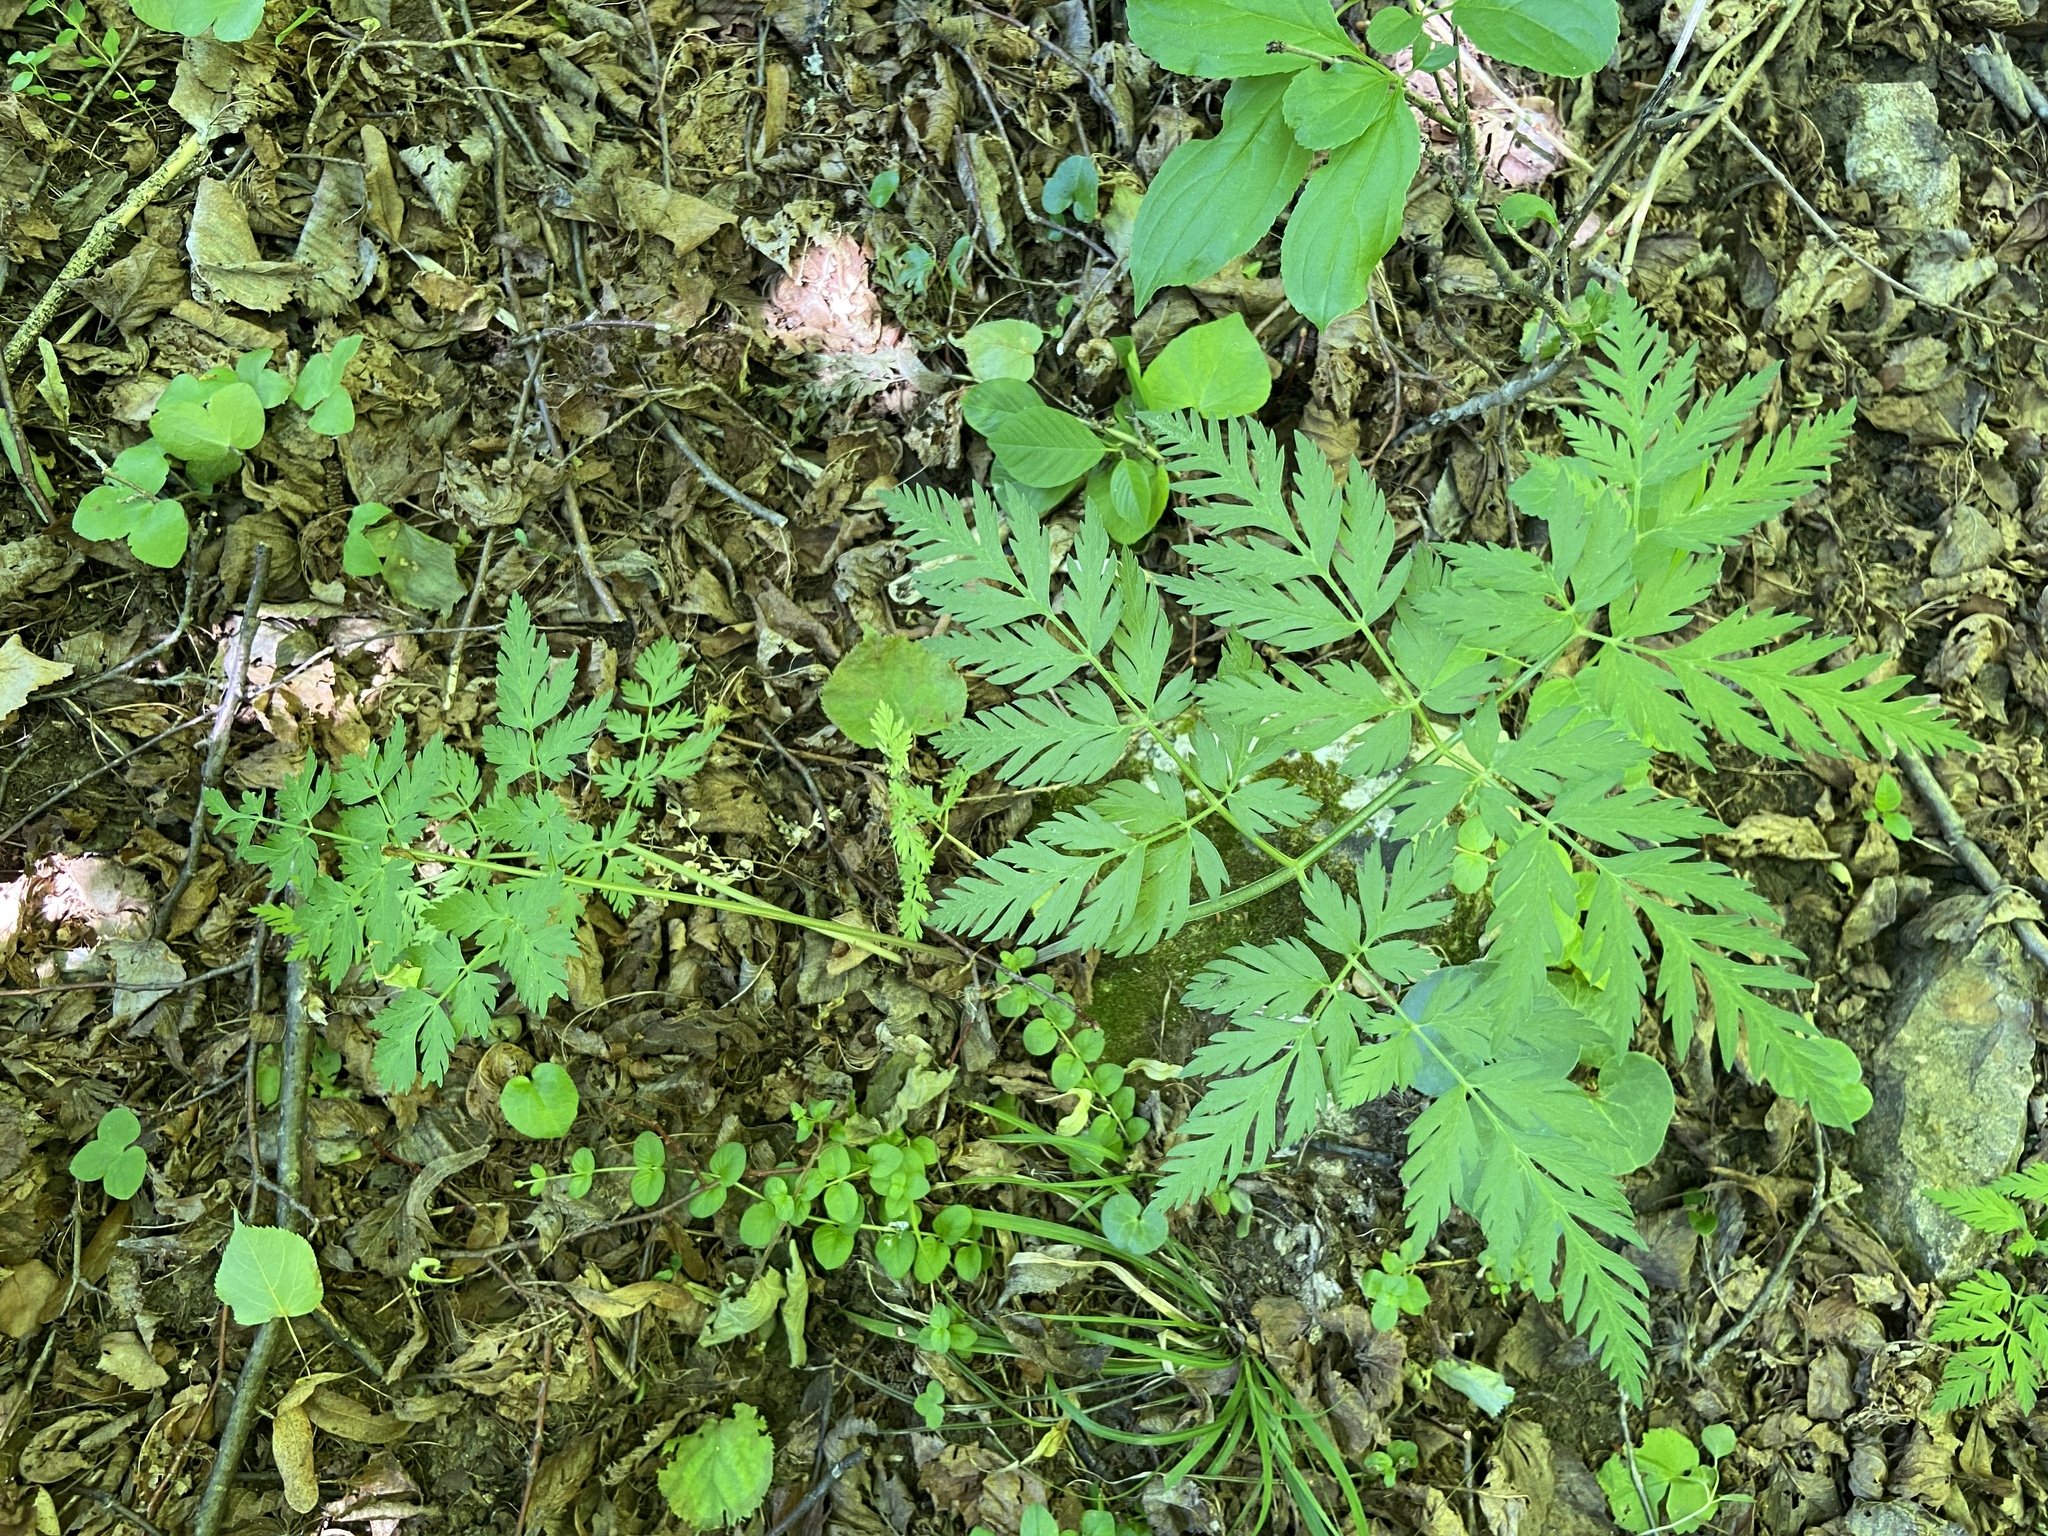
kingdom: Plantae
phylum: Tracheophyta
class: Magnoliopsida
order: Apiales
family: Apiaceae
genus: Anthriscus
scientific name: Anthriscus sylvestris
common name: Cow parsley
